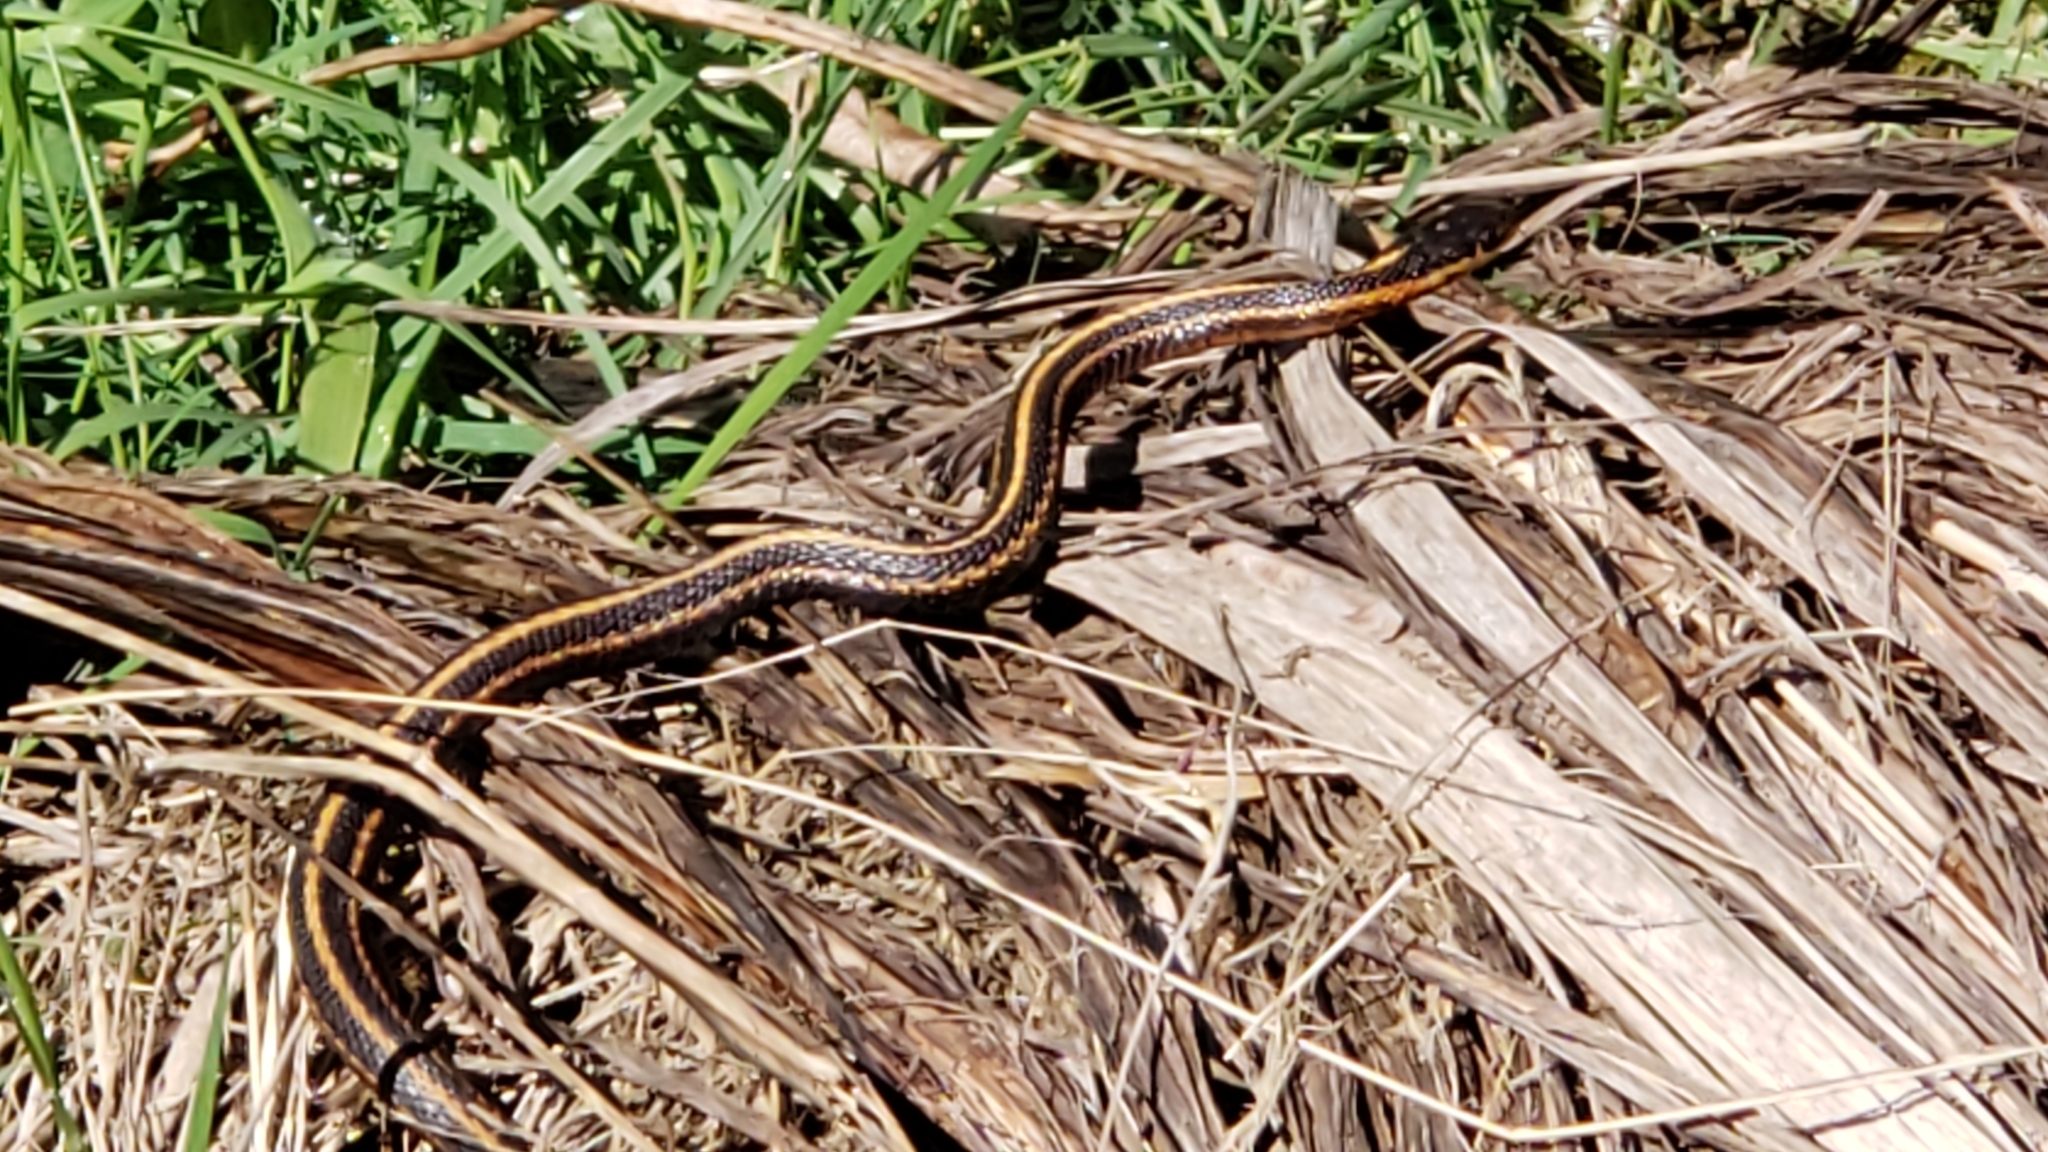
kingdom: Animalia
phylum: Chordata
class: Squamata
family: Colubridae
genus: Thamnophis
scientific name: Thamnophis ordinoides
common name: Northwestern garter snake
